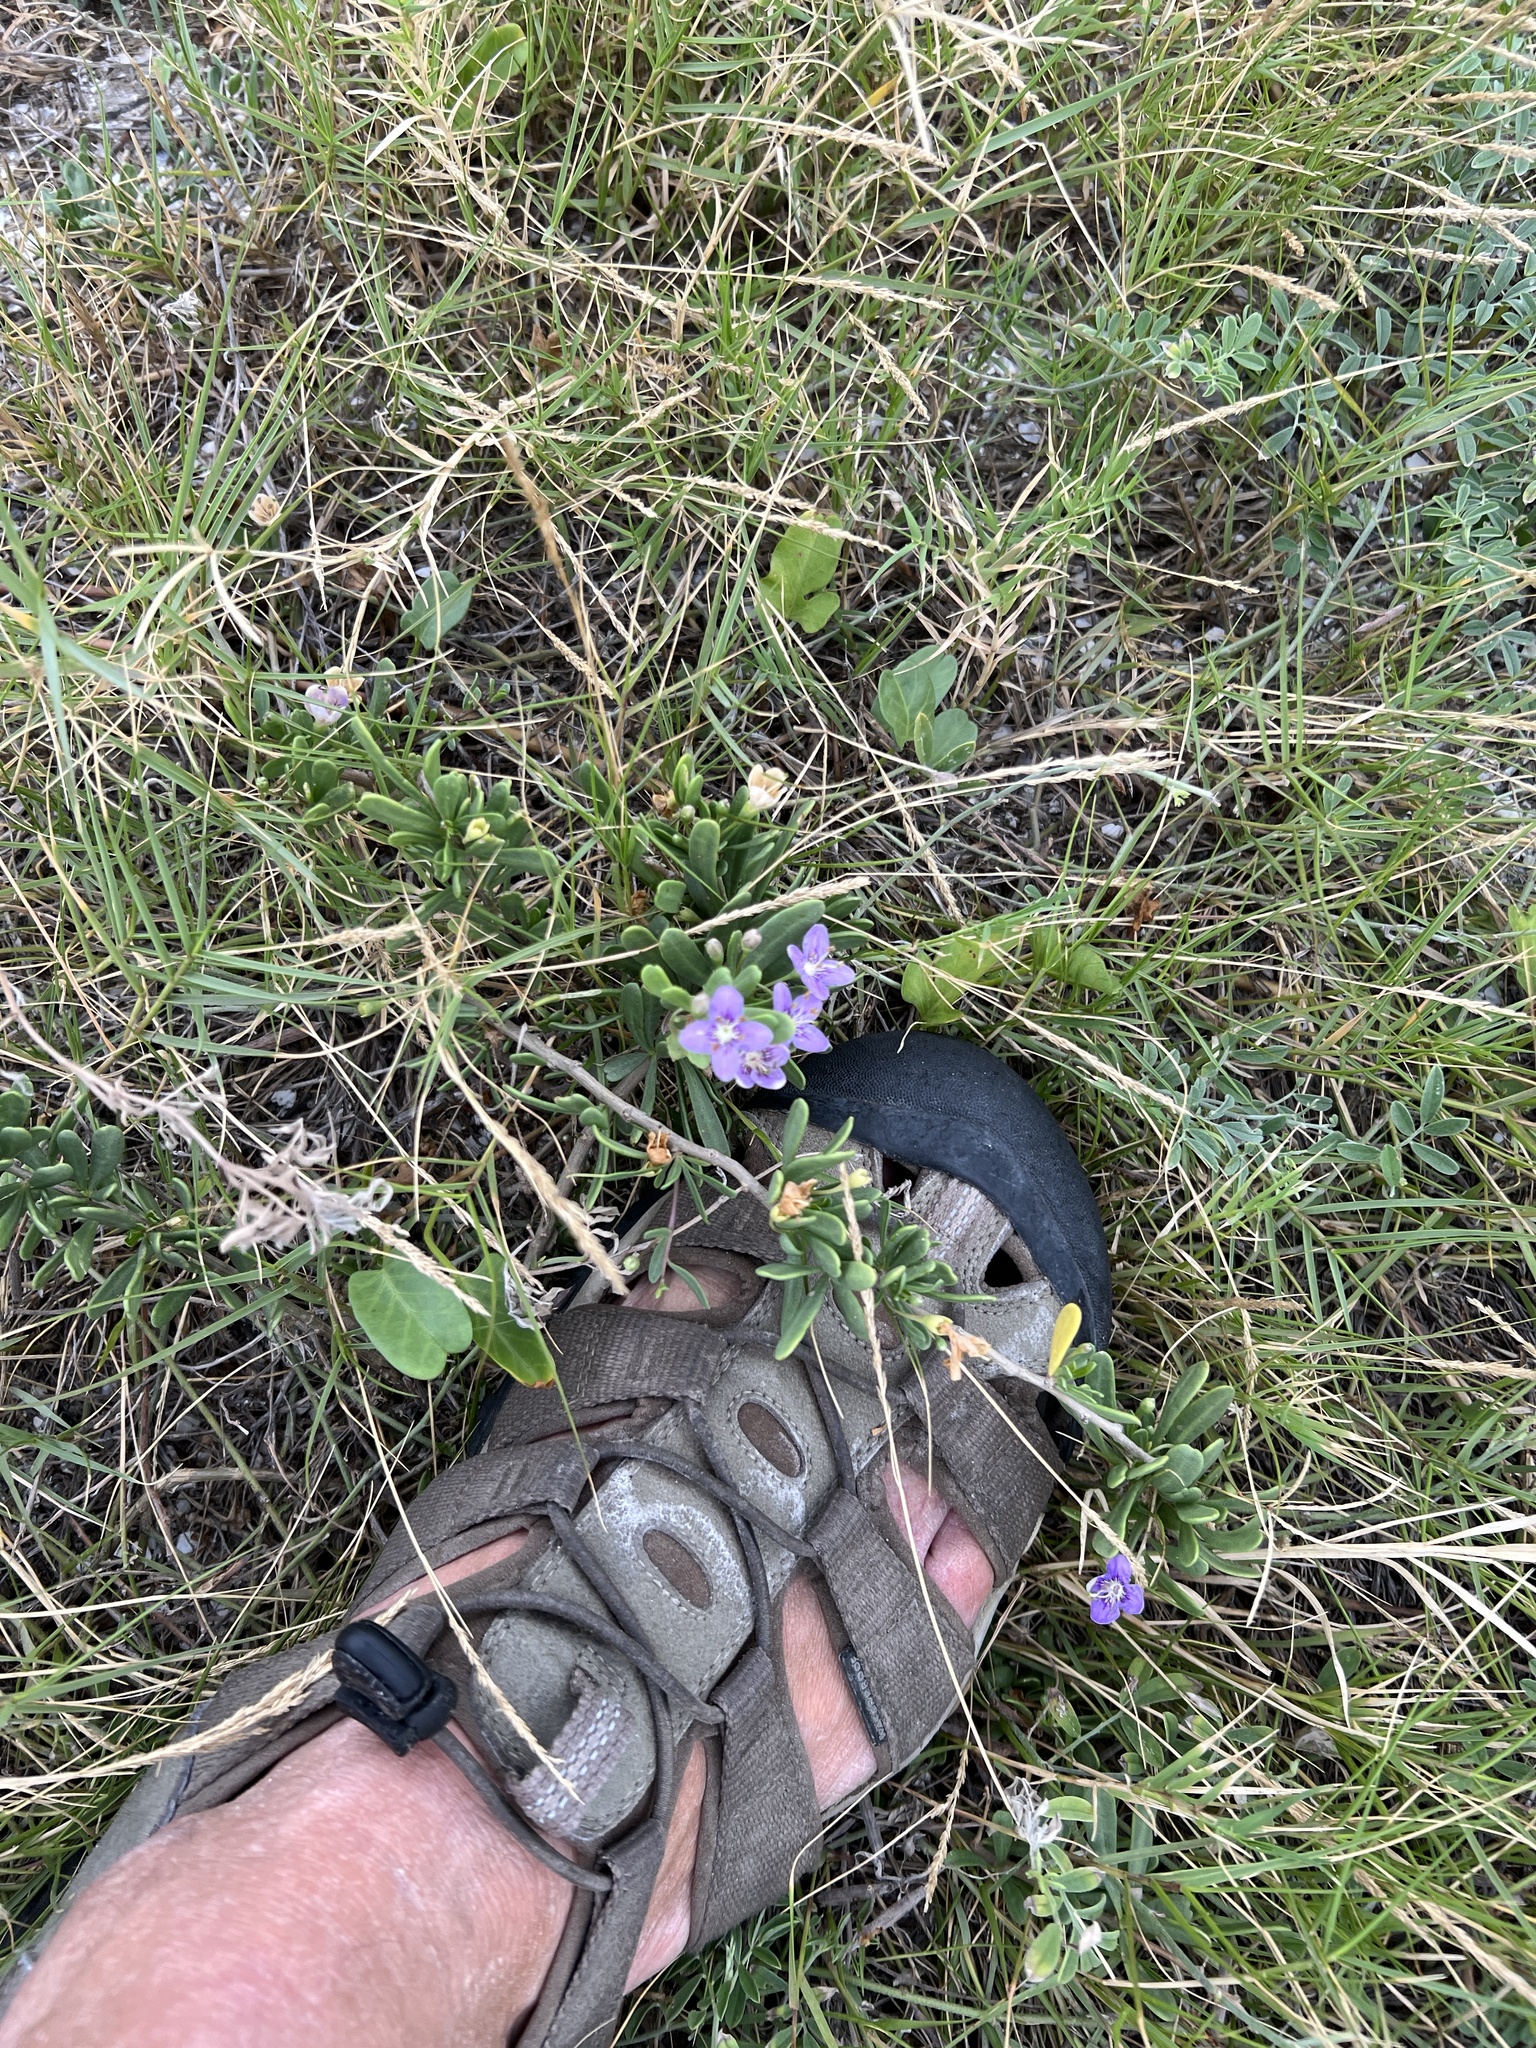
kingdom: Plantae
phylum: Tracheophyta
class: Magnoliopsida
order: Solanales
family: Solanaceae
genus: Lycium
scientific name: Lycium carolinianum
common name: Christmasberry
